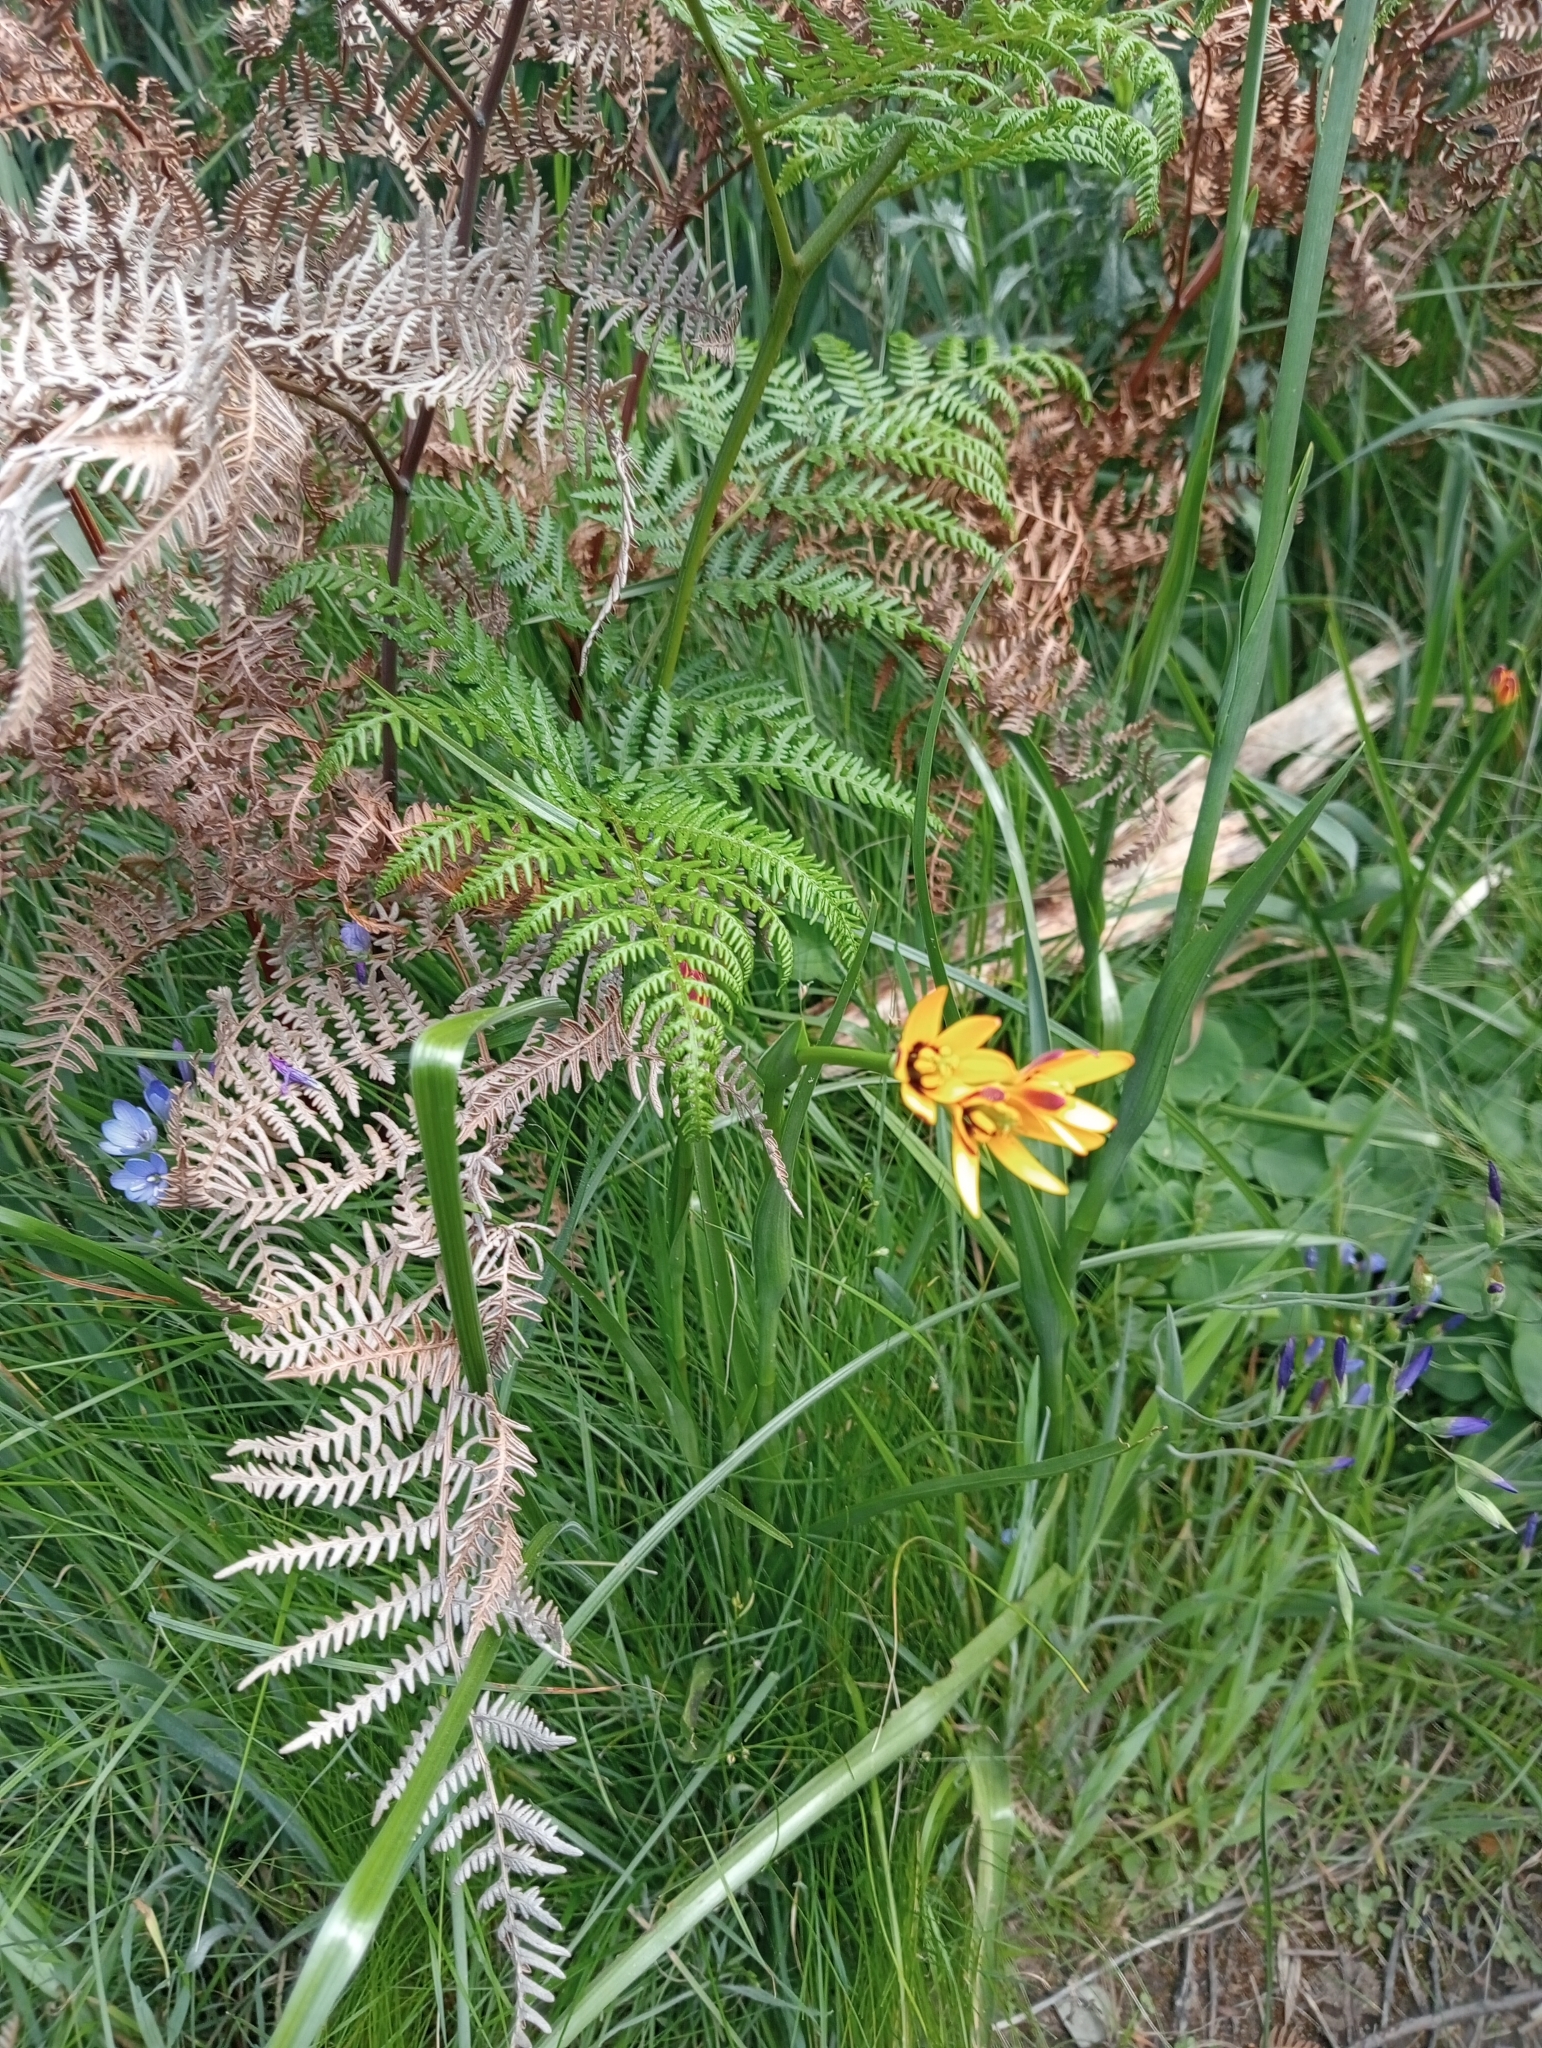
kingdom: Plantae
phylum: Tracheophyta
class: Liliopsida
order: Liliales
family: Colchicaceae
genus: Baeometra
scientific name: Baeometra uniflora
